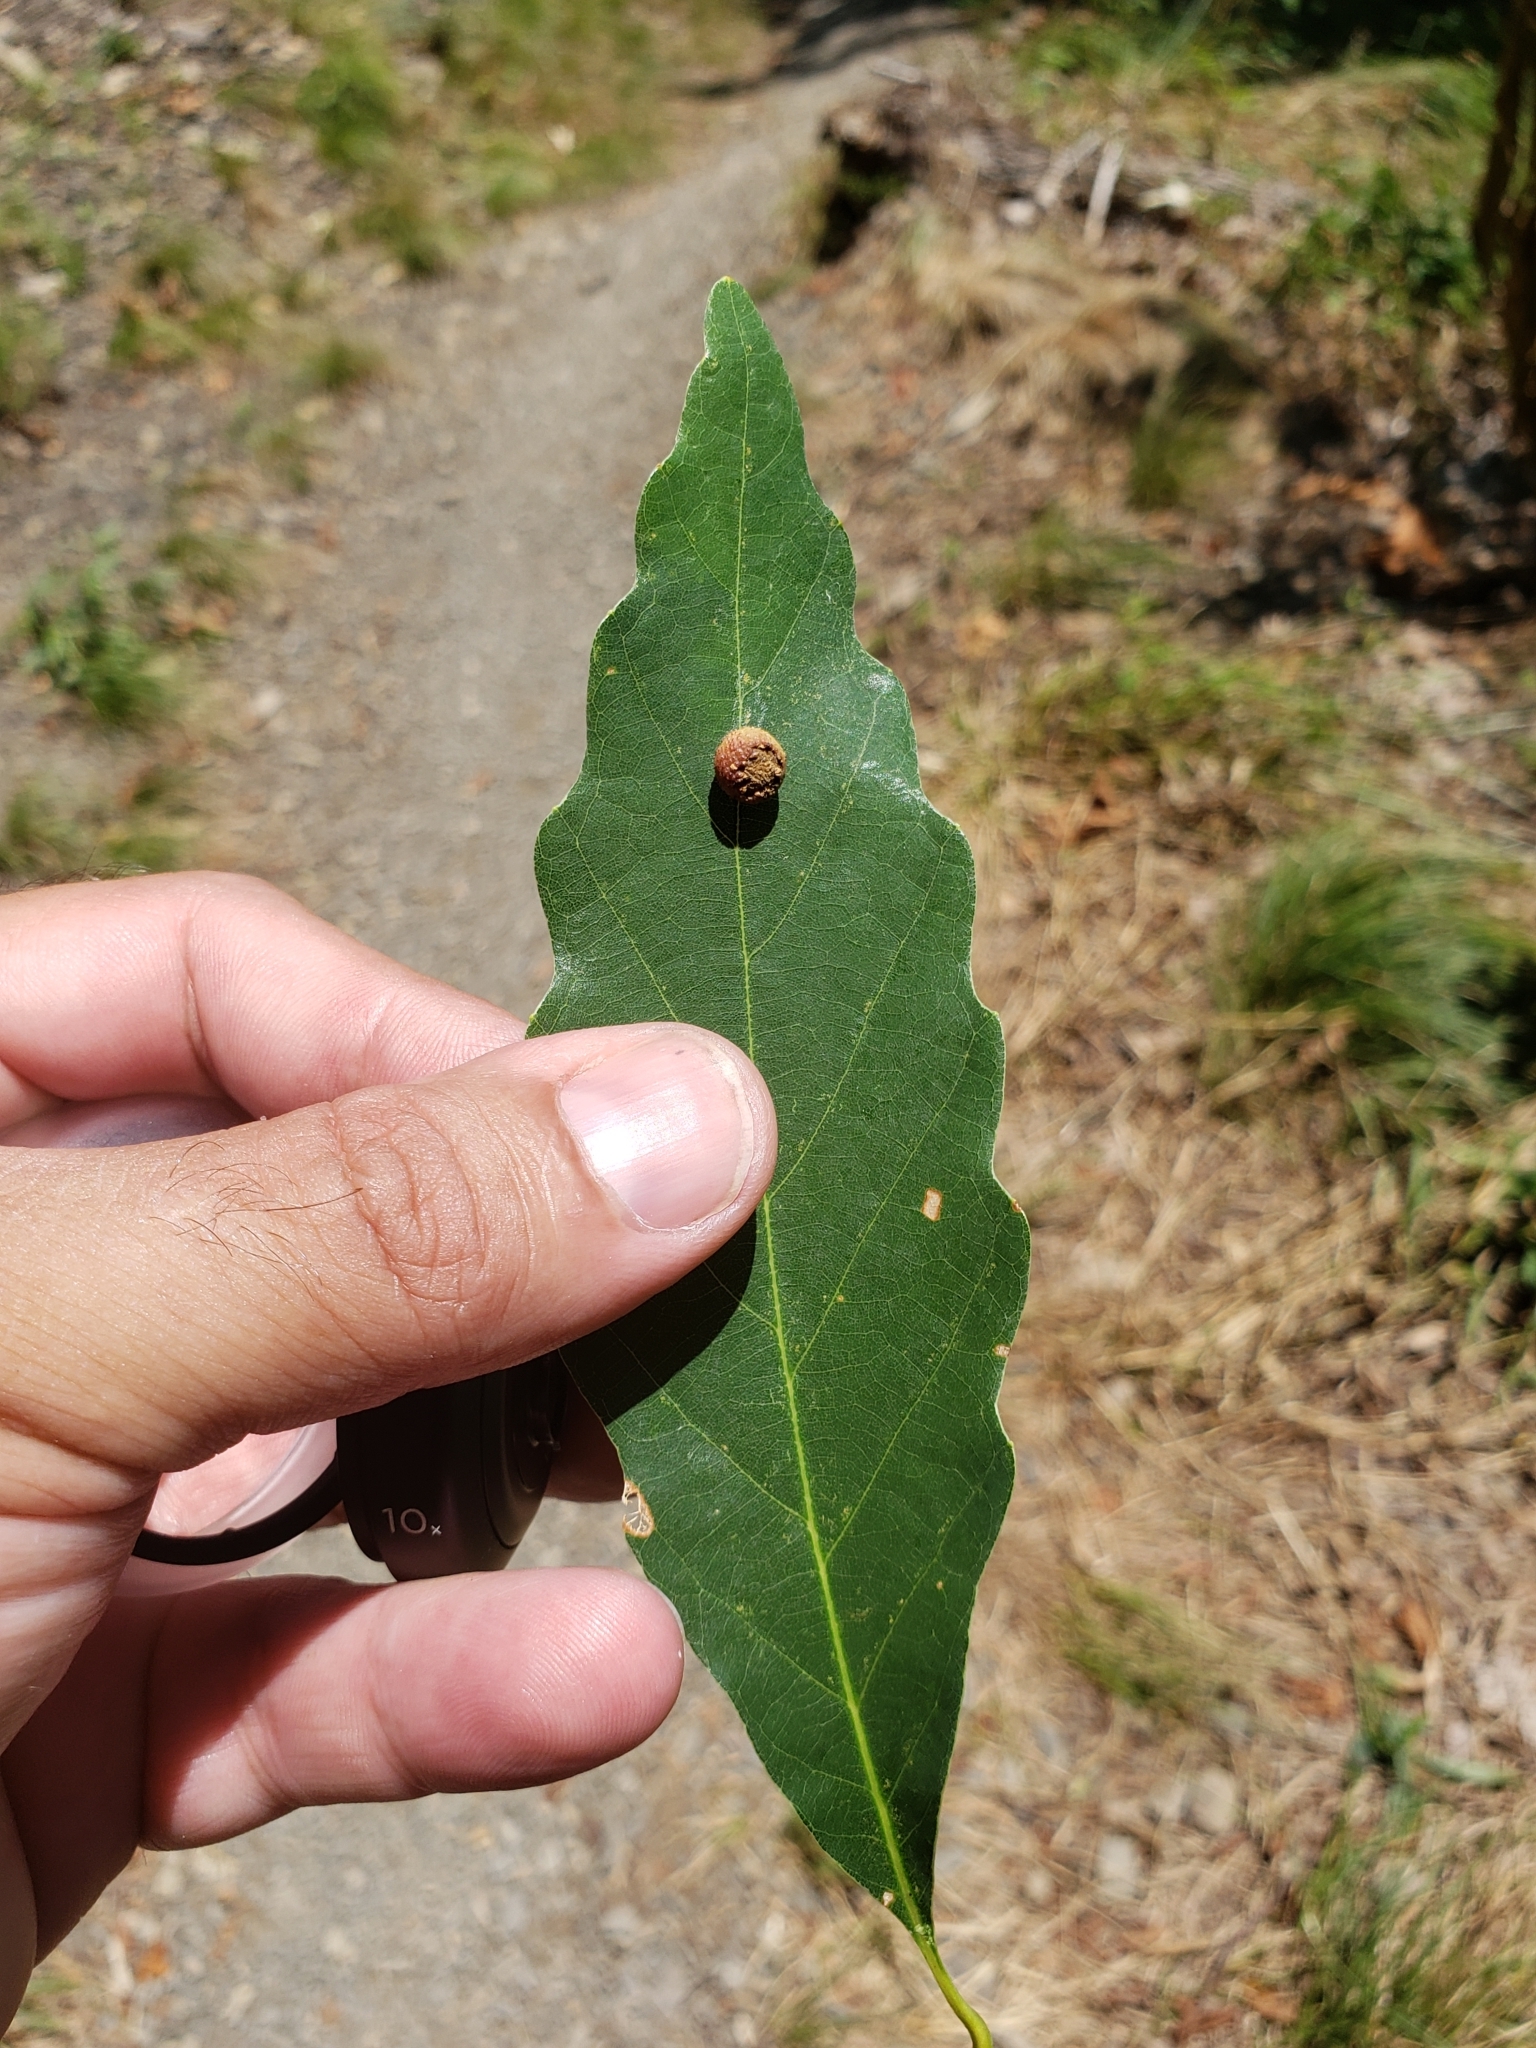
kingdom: Animalia
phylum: Arthropoda
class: Insecta
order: Hymenoptera
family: Cynipidae
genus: Acraspis
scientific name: Acraspis quercushirta
